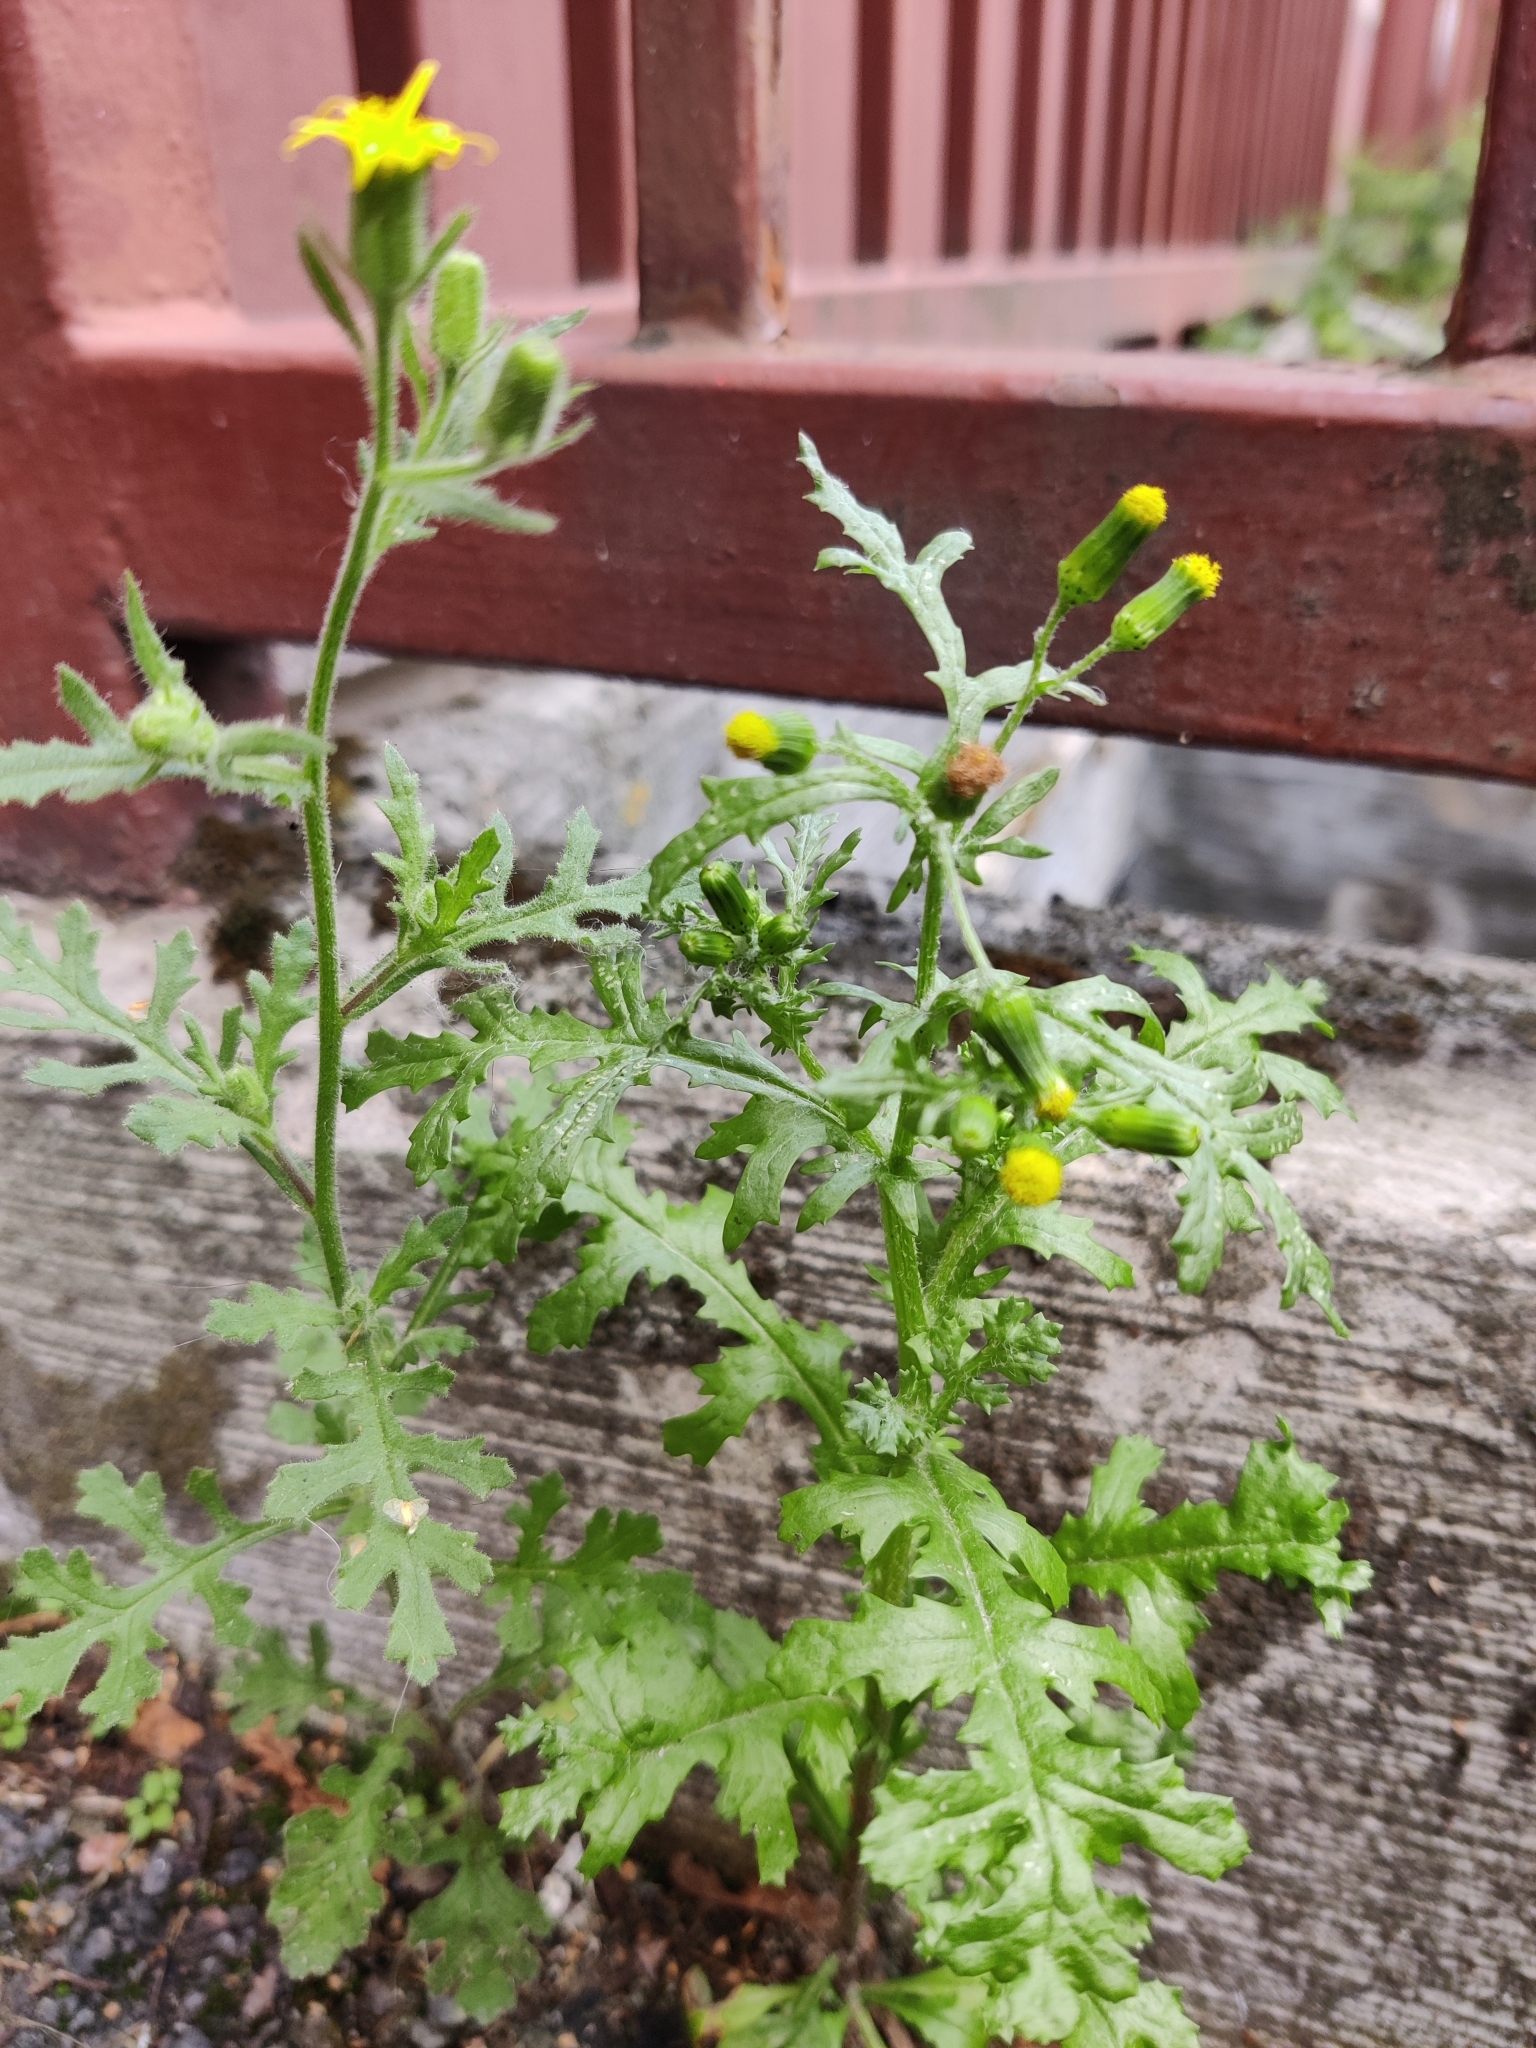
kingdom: Plantae
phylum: Tracheophyta
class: Magnoliopsida
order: Asterales
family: Asteraceae
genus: Senecio
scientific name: Senecio viscosus
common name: Sticky groundsel
